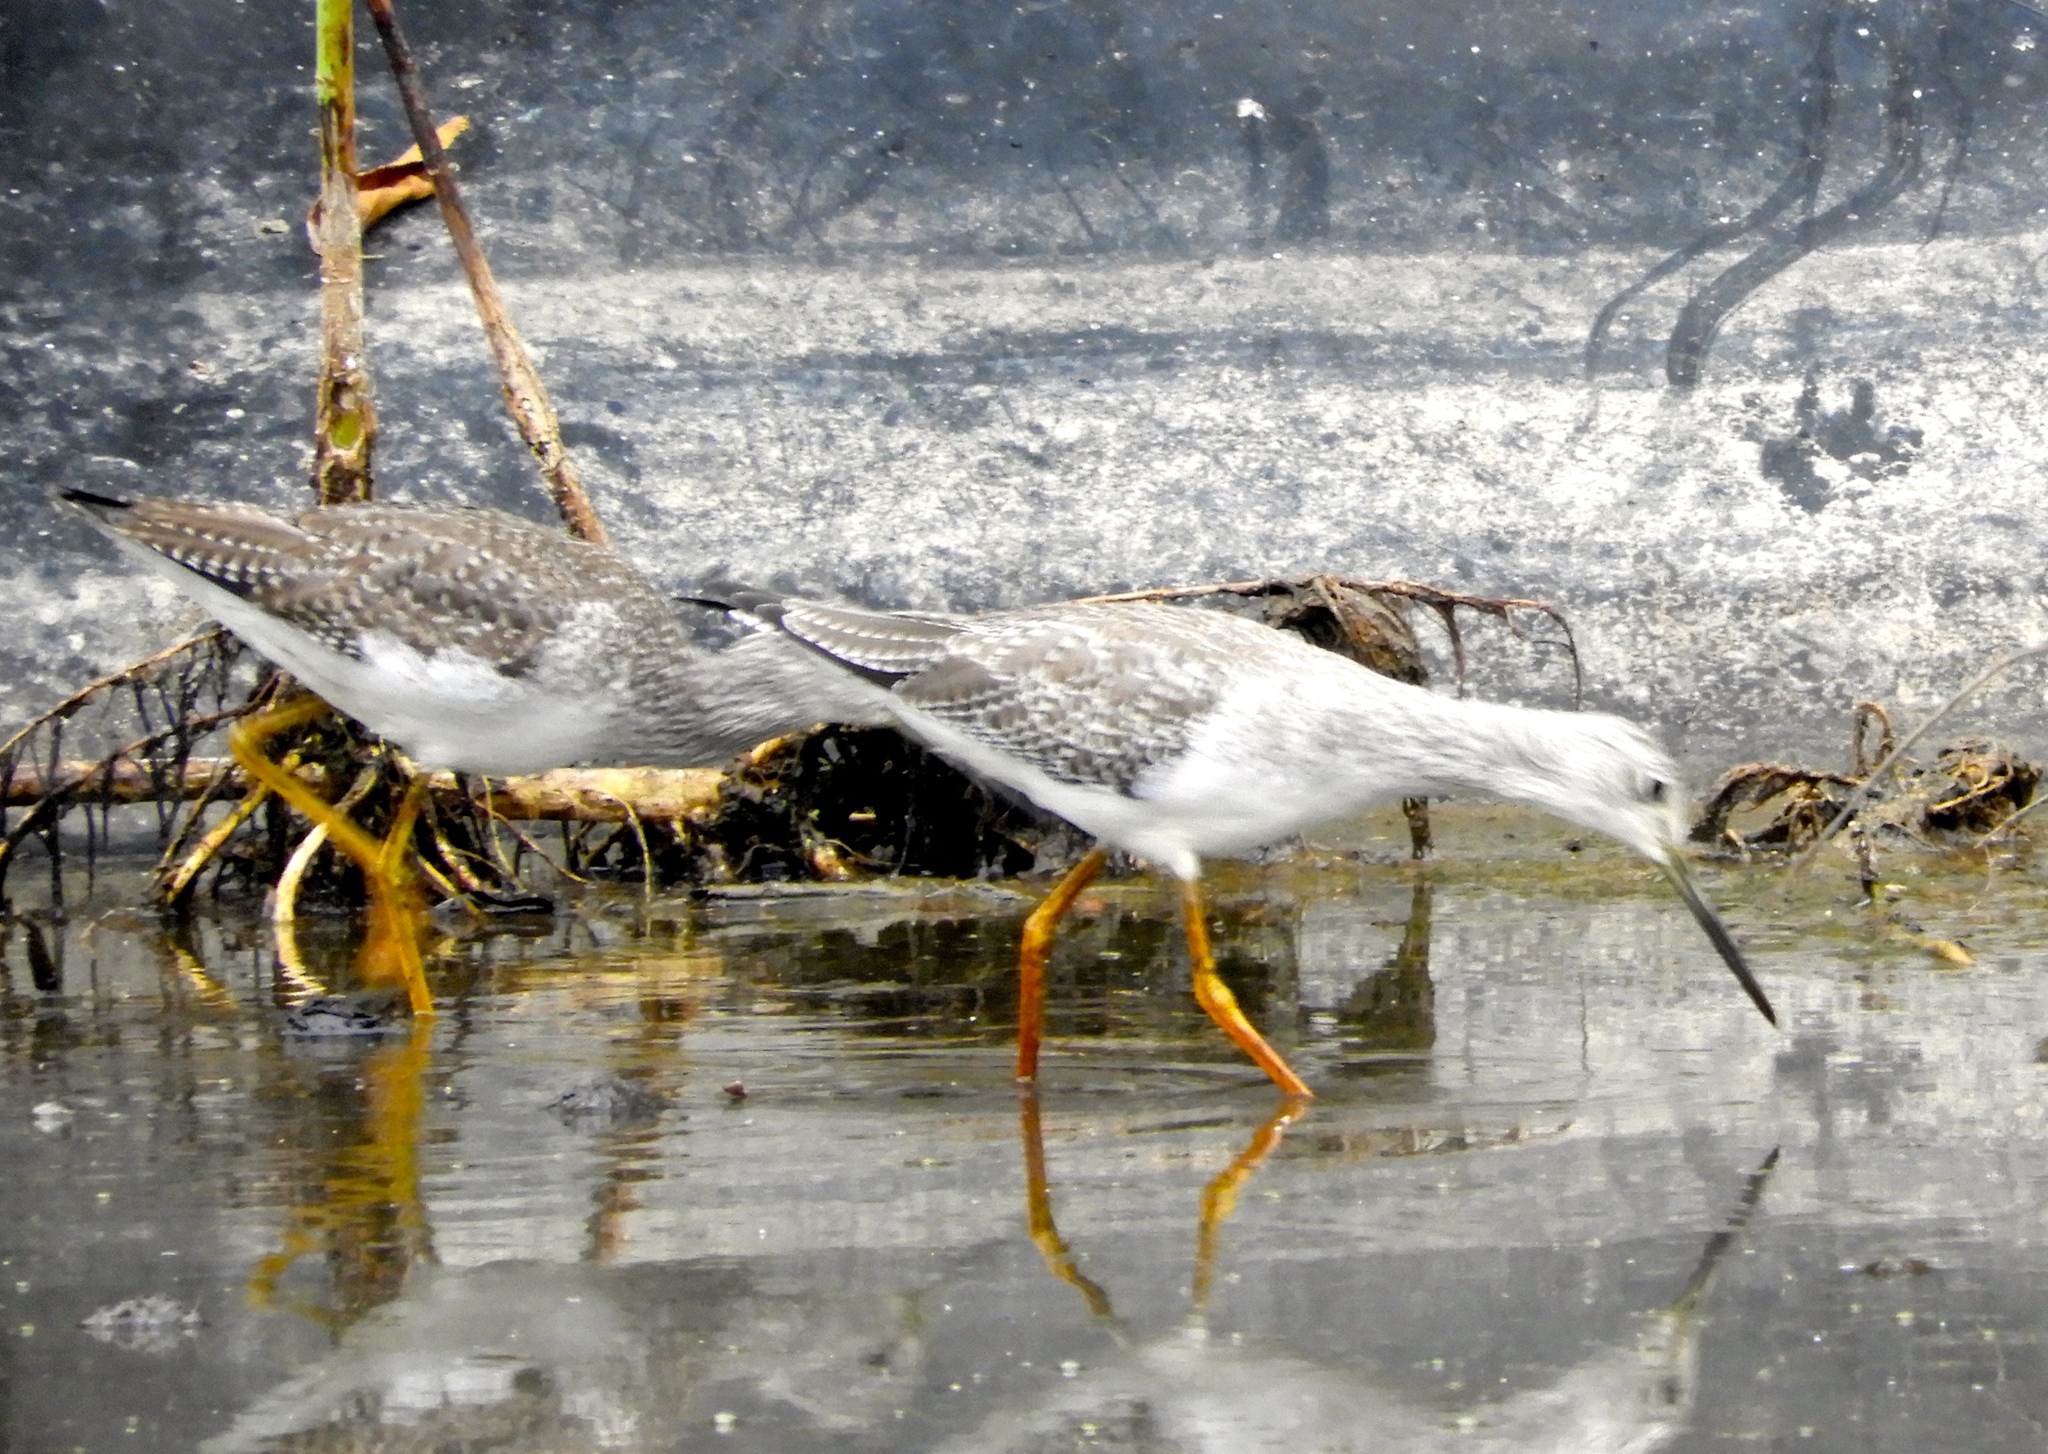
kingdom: Animalia
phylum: Chordata
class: Aves
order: Charadriiformes
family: Scolopacidae
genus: Tringa
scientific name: Tringa melanoleuca
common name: Greater yellowlegs
